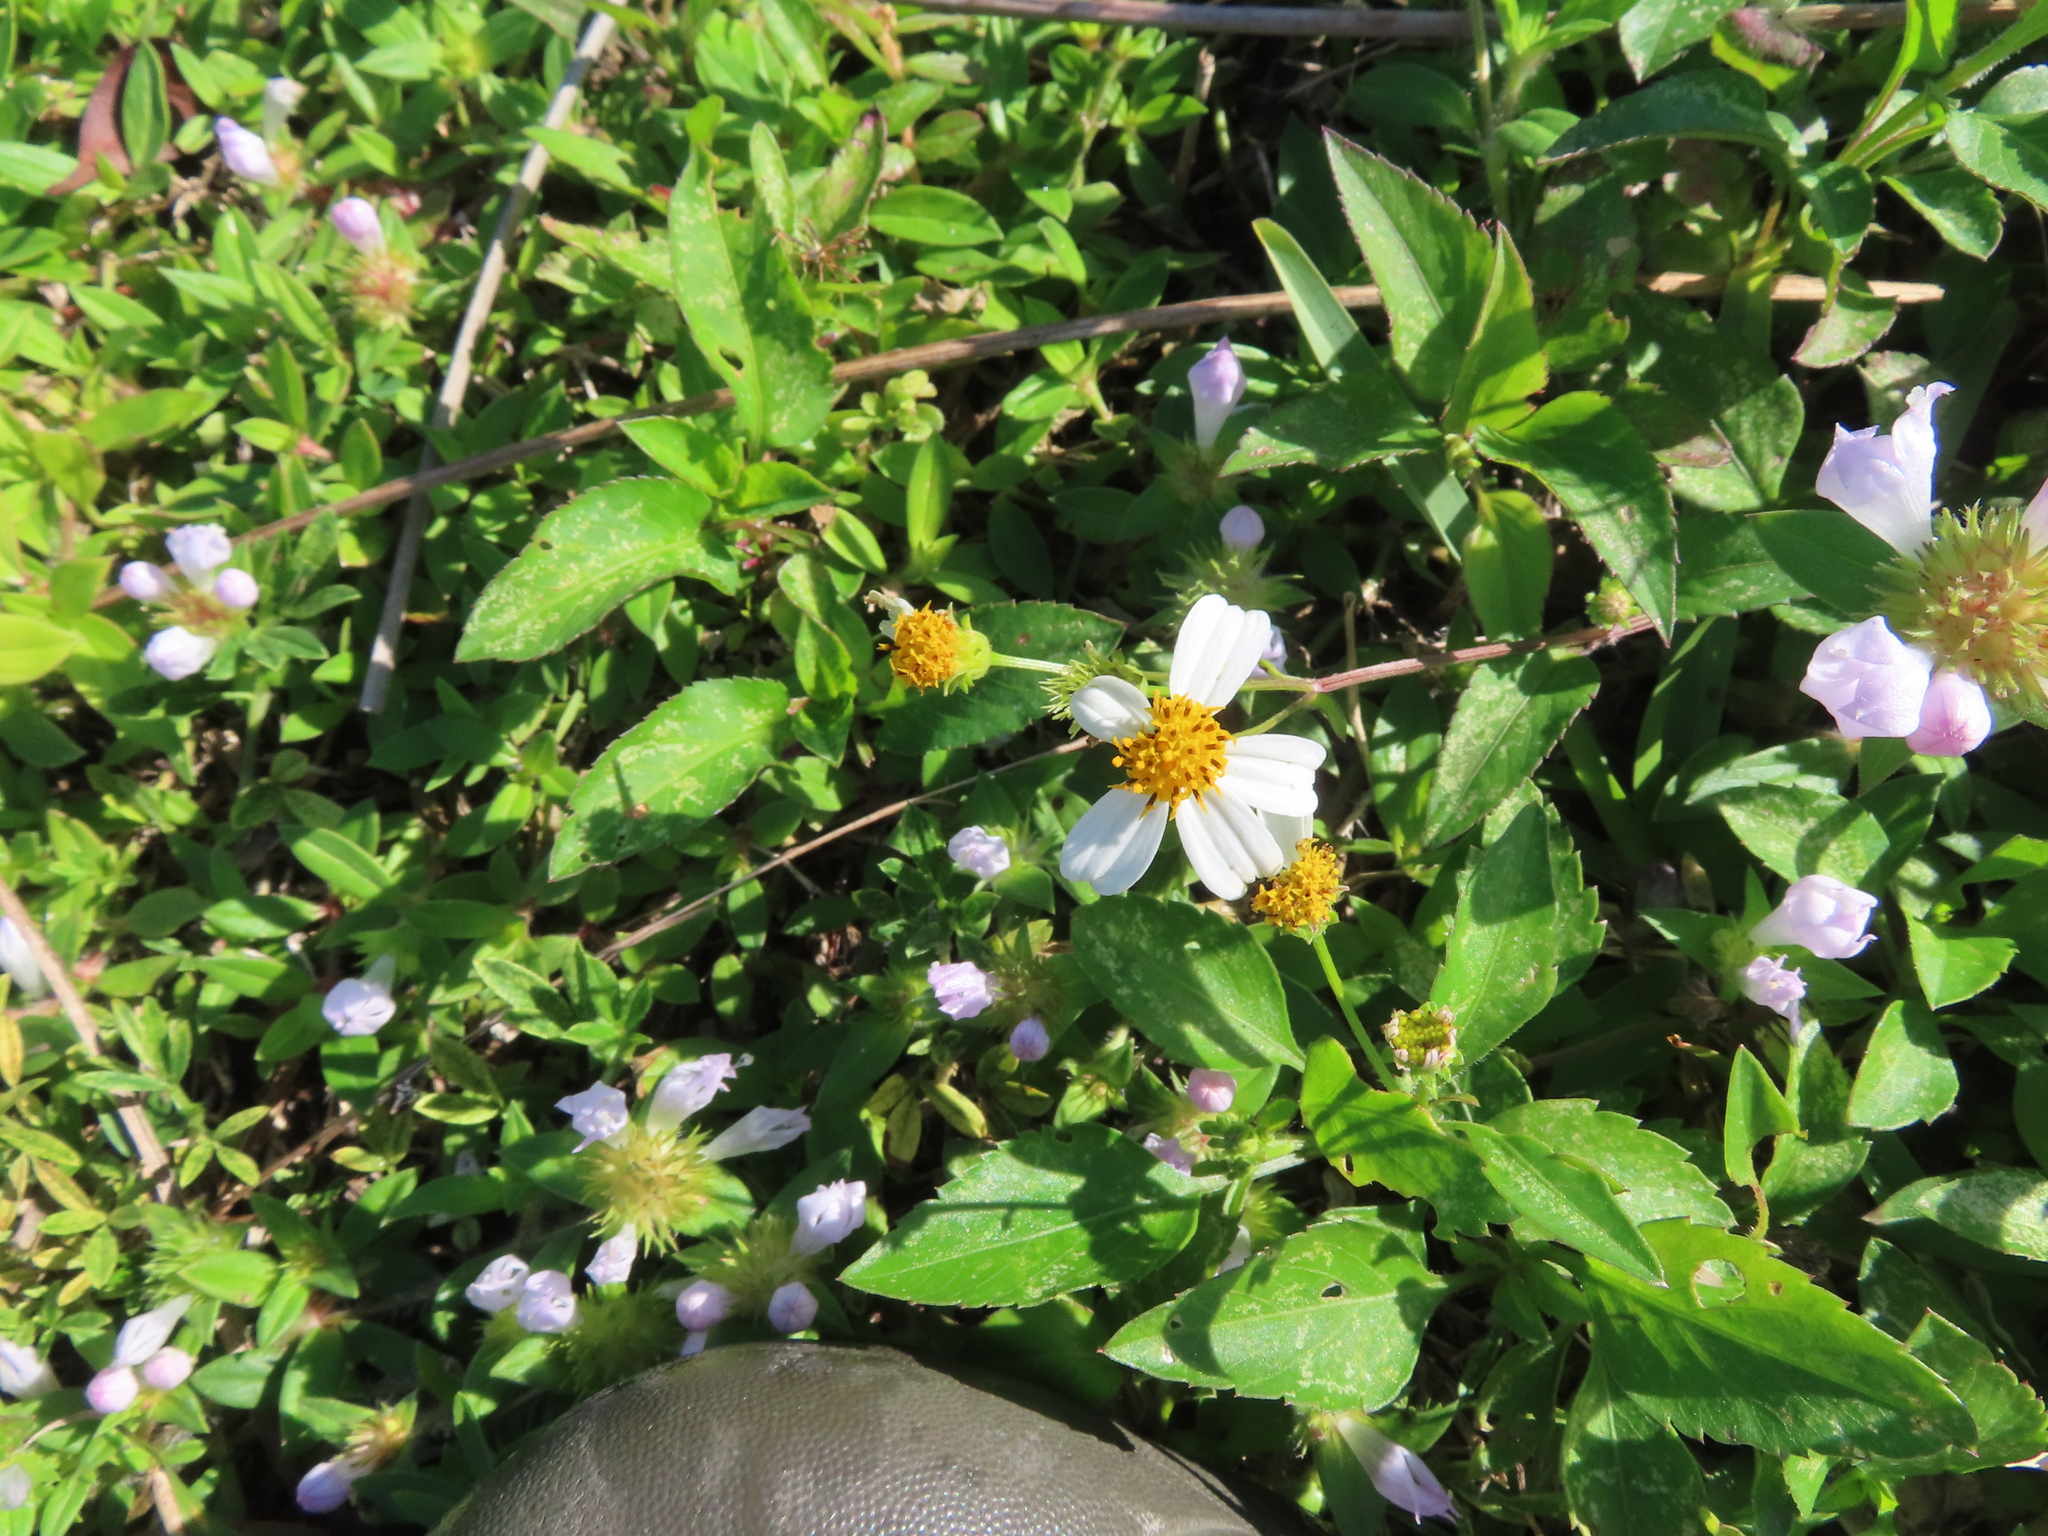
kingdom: Plantae
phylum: Tracheophyta
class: Magnoliopsida
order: Asterales
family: Asteraceae
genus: Bidens
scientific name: Bidens alba
